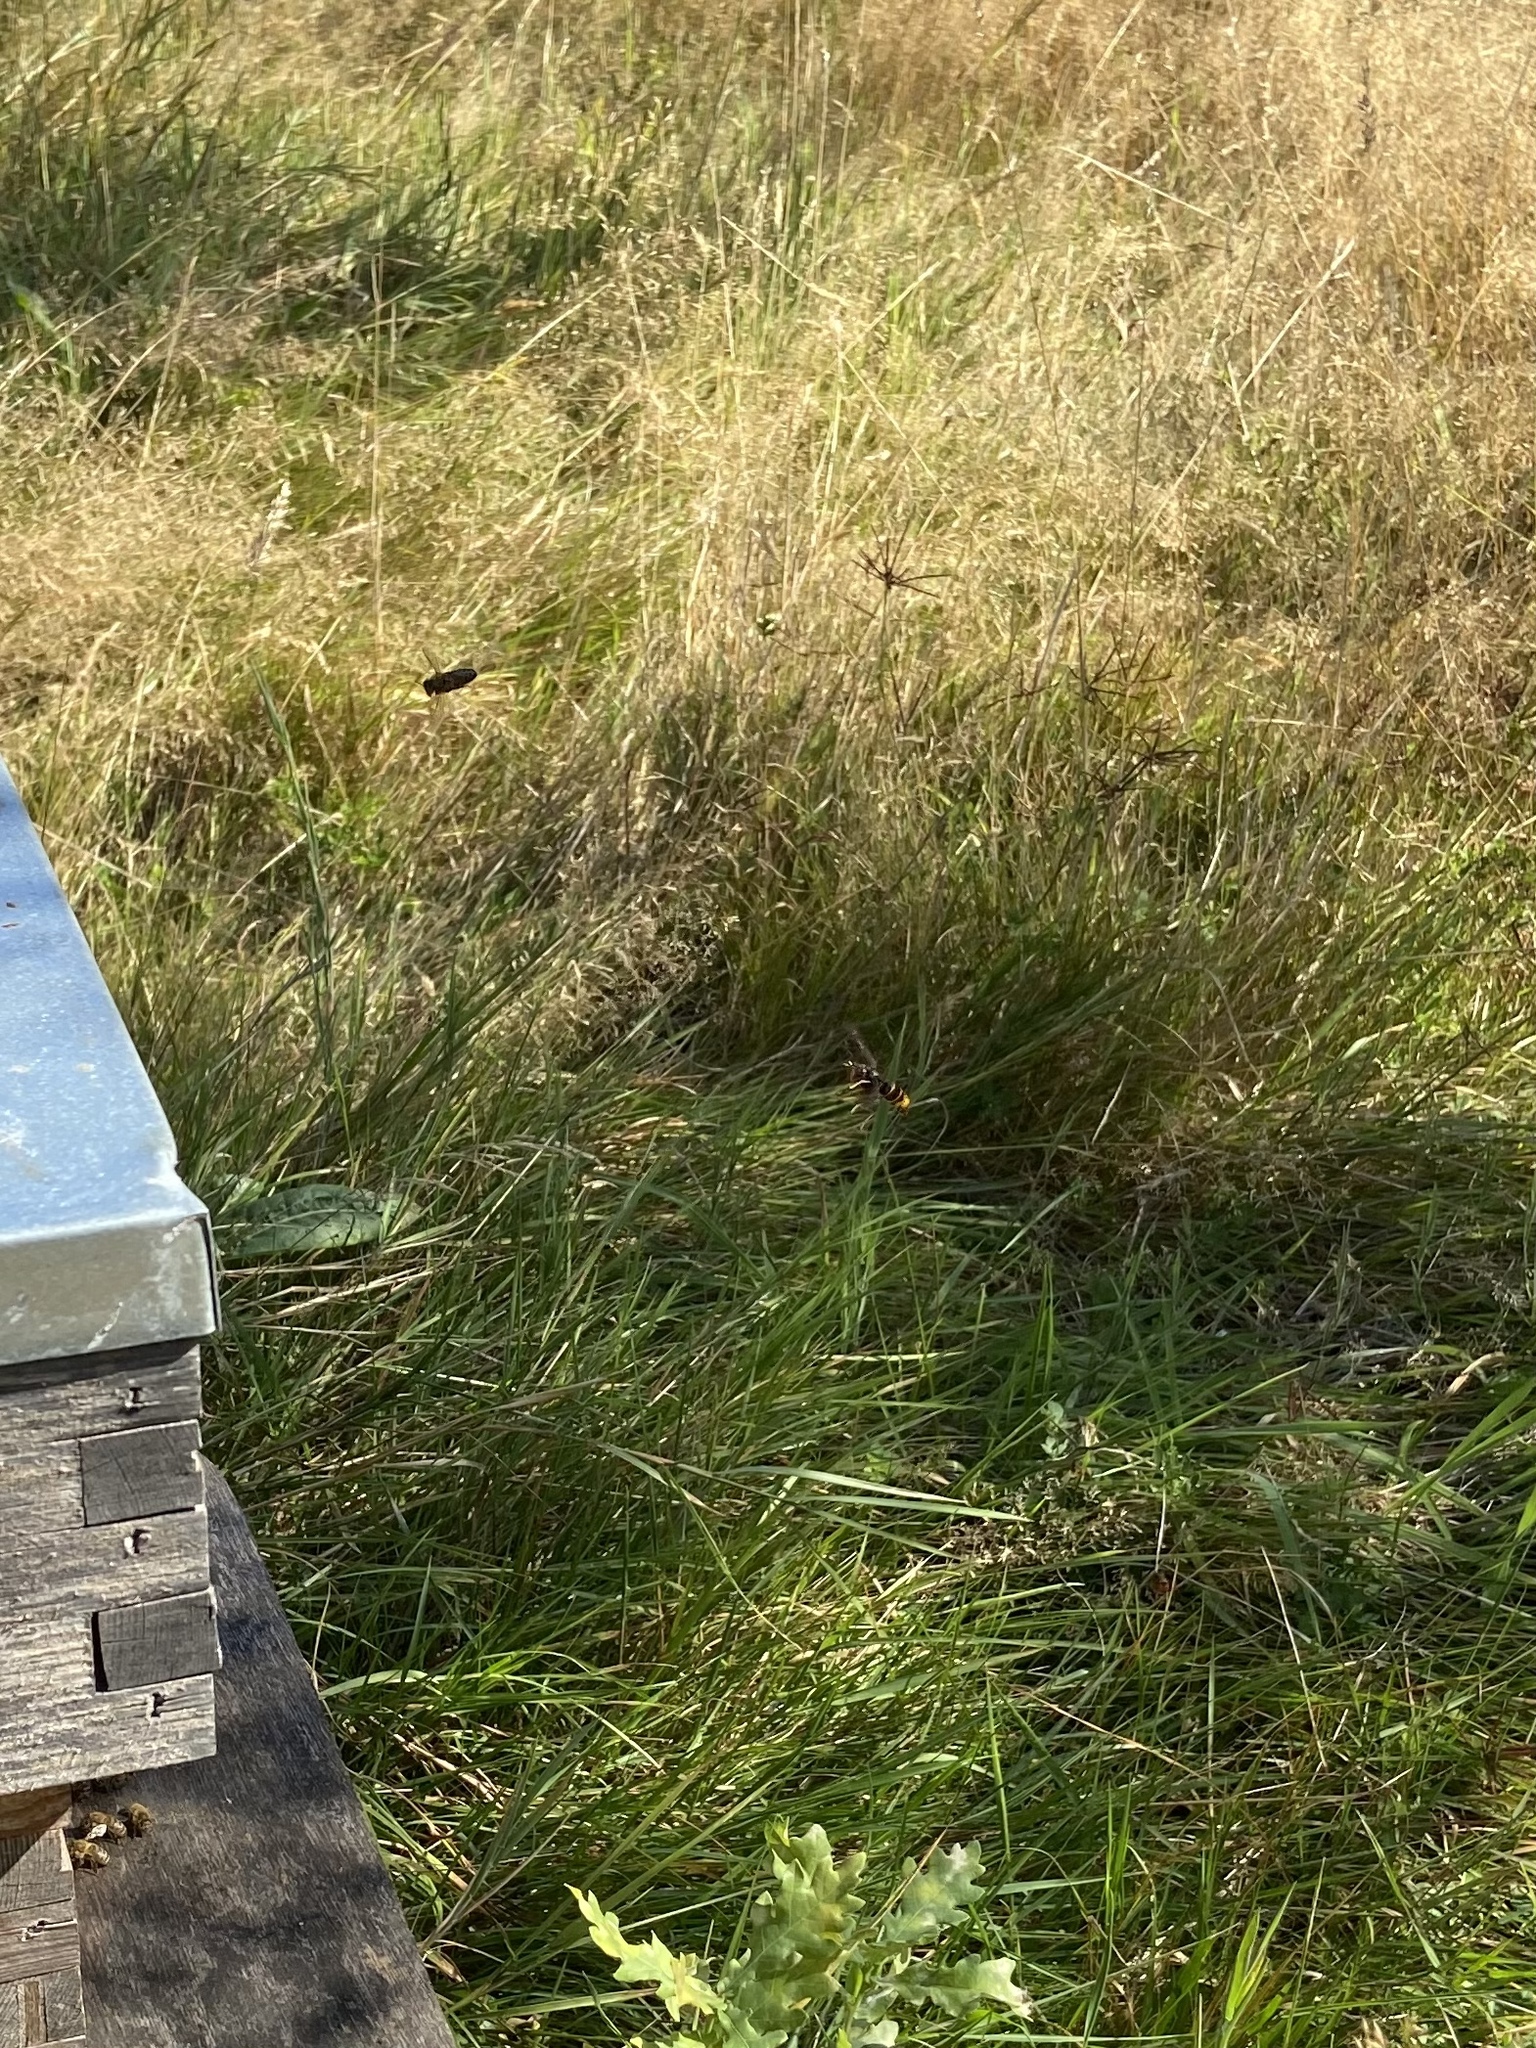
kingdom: Animalia
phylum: Arthropoda
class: Insecta
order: Hymenoptera
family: Vespidae
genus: Vespa
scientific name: Vespa velutina
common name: Asian hornet
